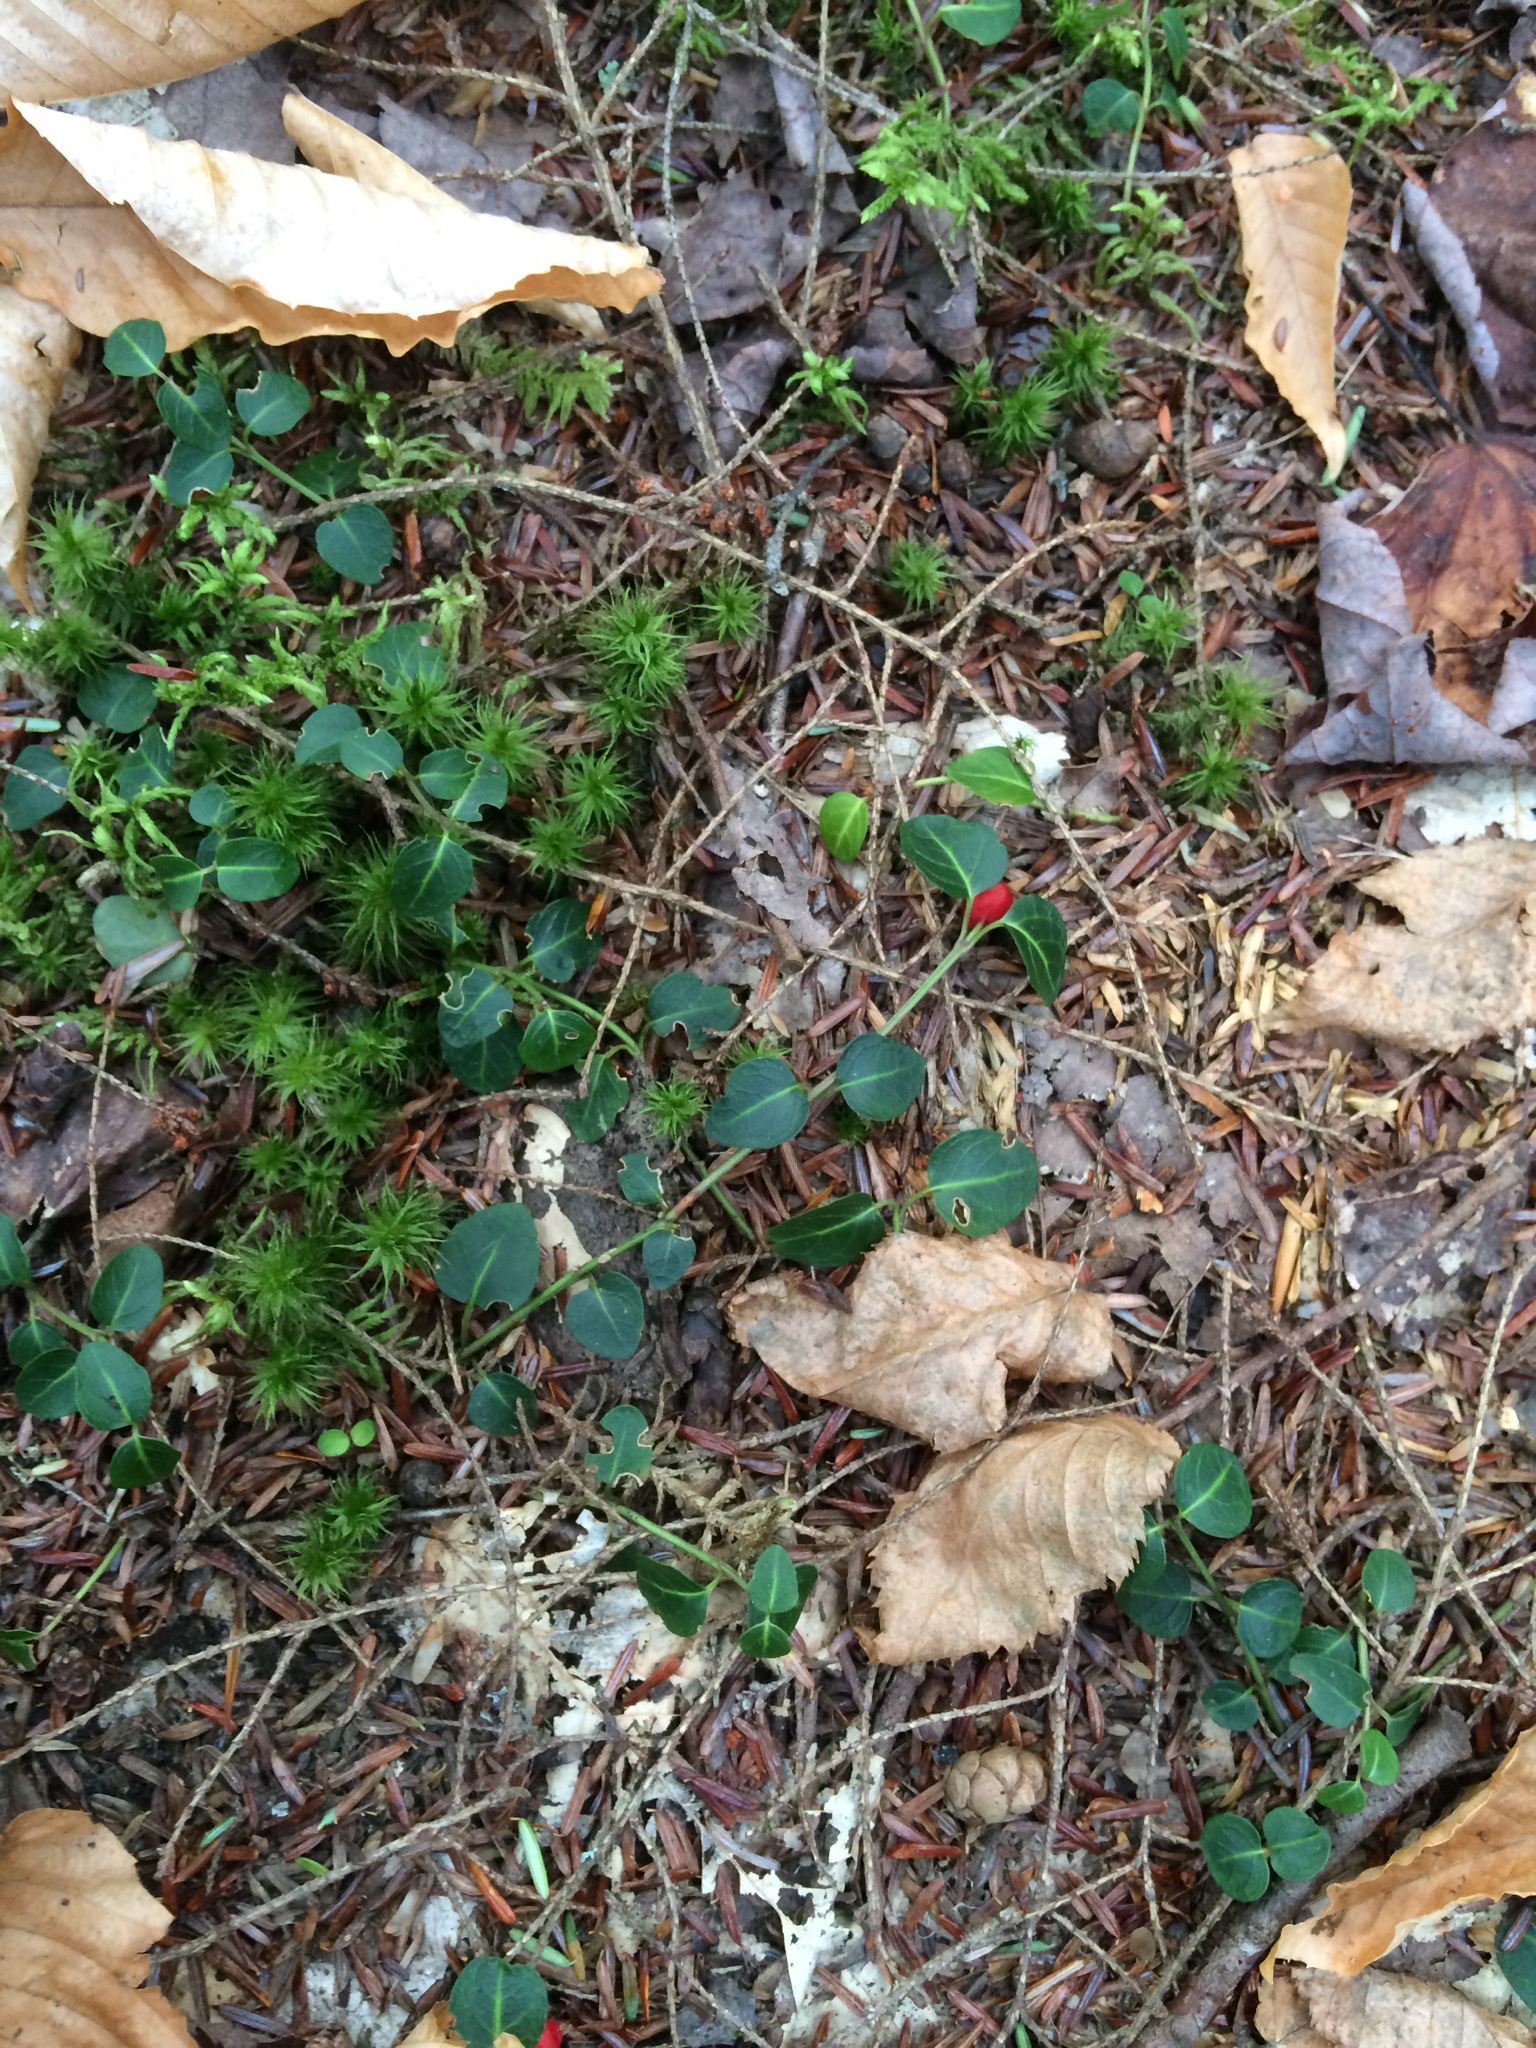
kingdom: Plantae
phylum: Tracheophyta
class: Magnoliopsida
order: Gentianales
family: Rubiaceae
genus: Mitchella
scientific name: Mitchella repens
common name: Partridge-berry
